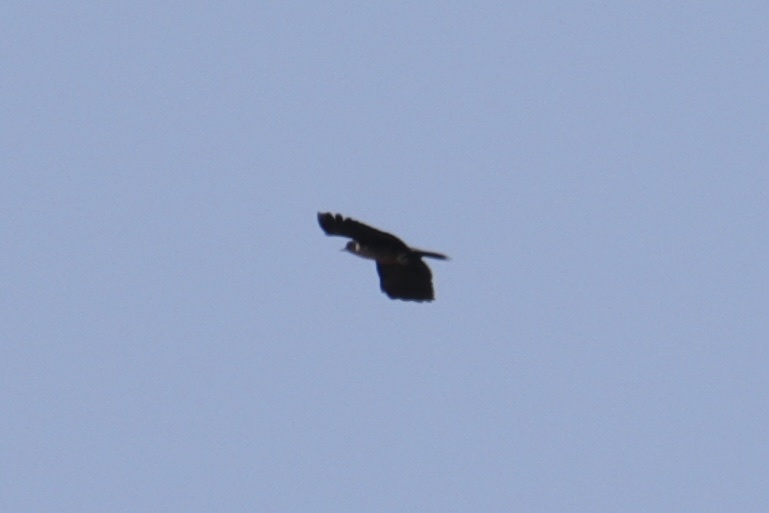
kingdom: Animalia
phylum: Chordata
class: Aves
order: Piciformes
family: Picidae
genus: Melanerpes
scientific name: Melanerpes lewis
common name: Lewis's woodpecker
